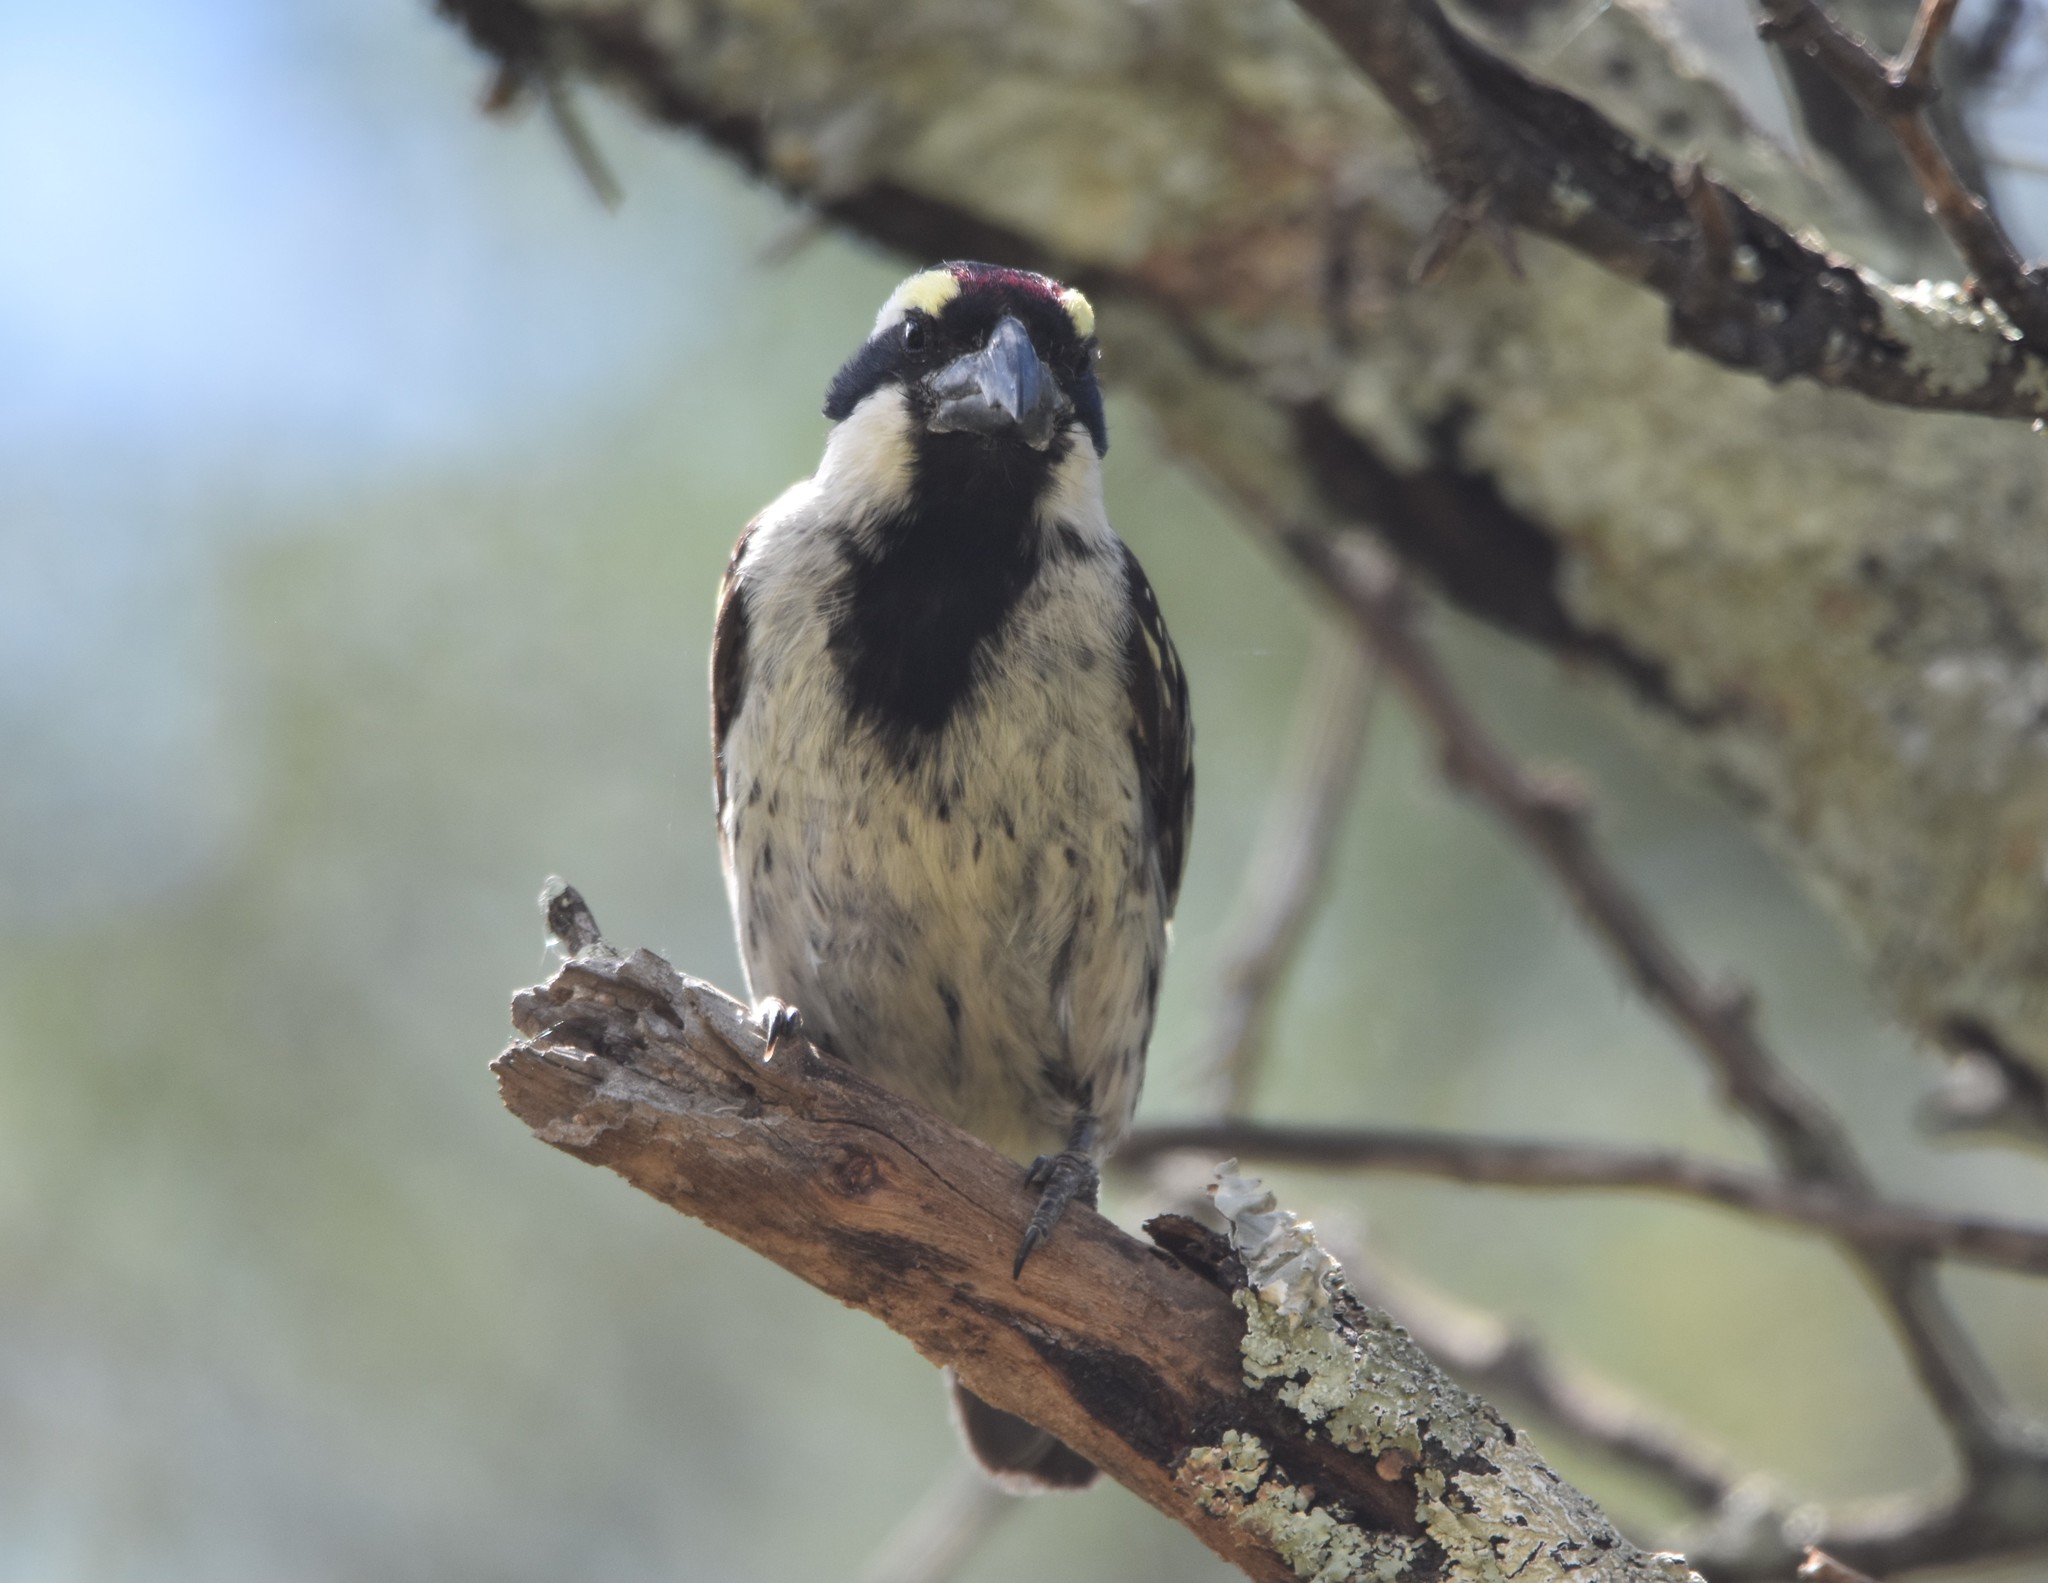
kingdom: Animalia
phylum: Chordata
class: Aves
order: Piciformes
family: Lybiidae
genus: Tricholaema
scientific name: Tricholaema leucomelas
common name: Acacia pied barbet
